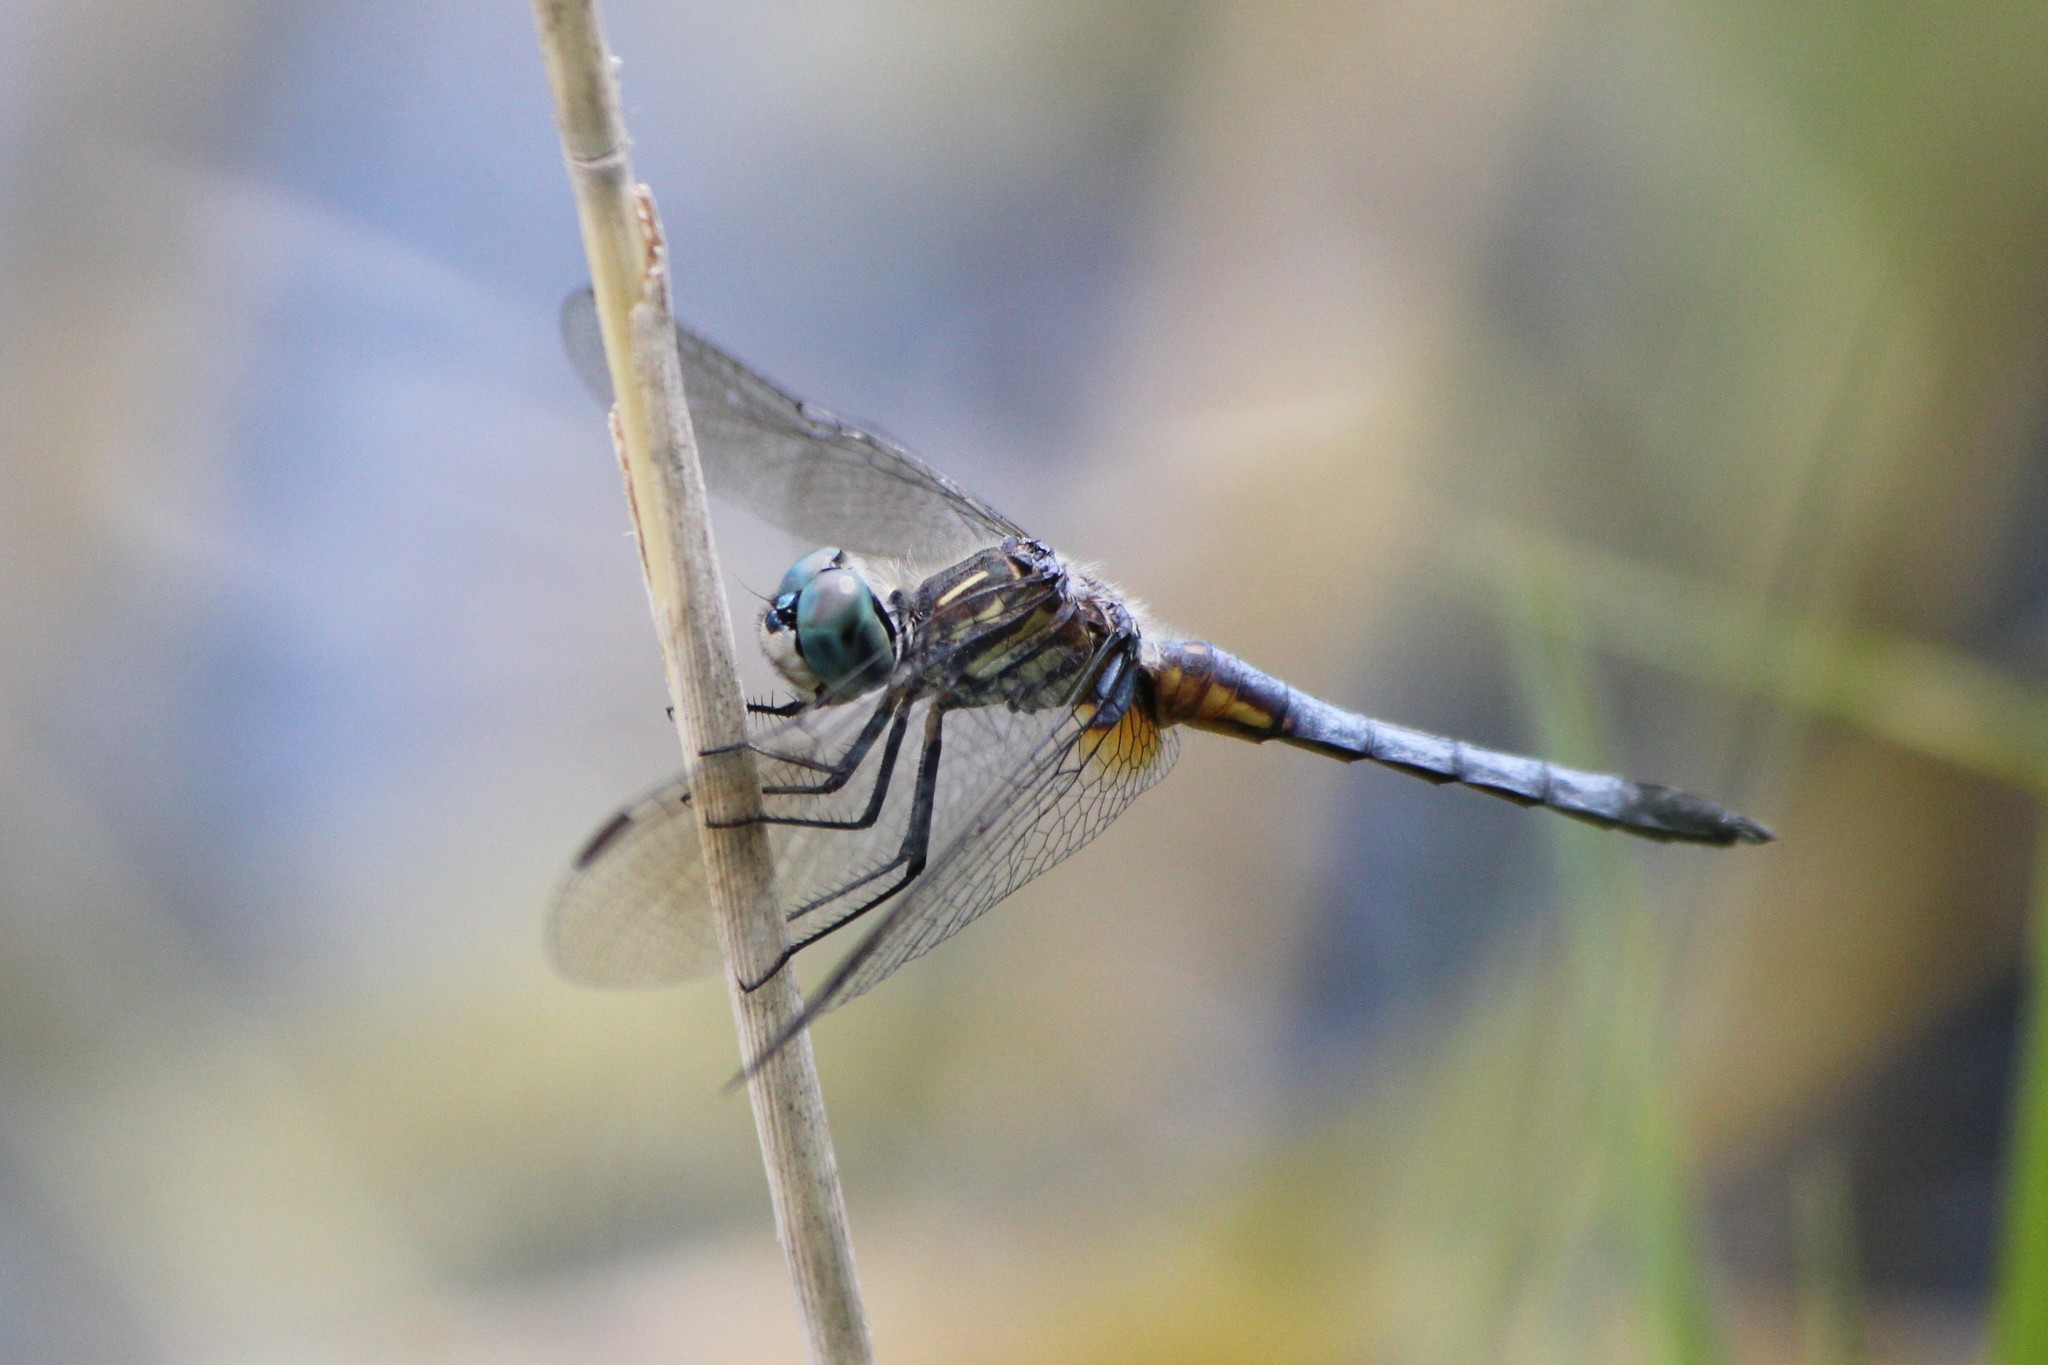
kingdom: Animalia
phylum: Arthropoda
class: Insecta
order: Odonata
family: Libellulidae
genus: Pachydiplax
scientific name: Pachydiplax longipennis
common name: Blue dasher
